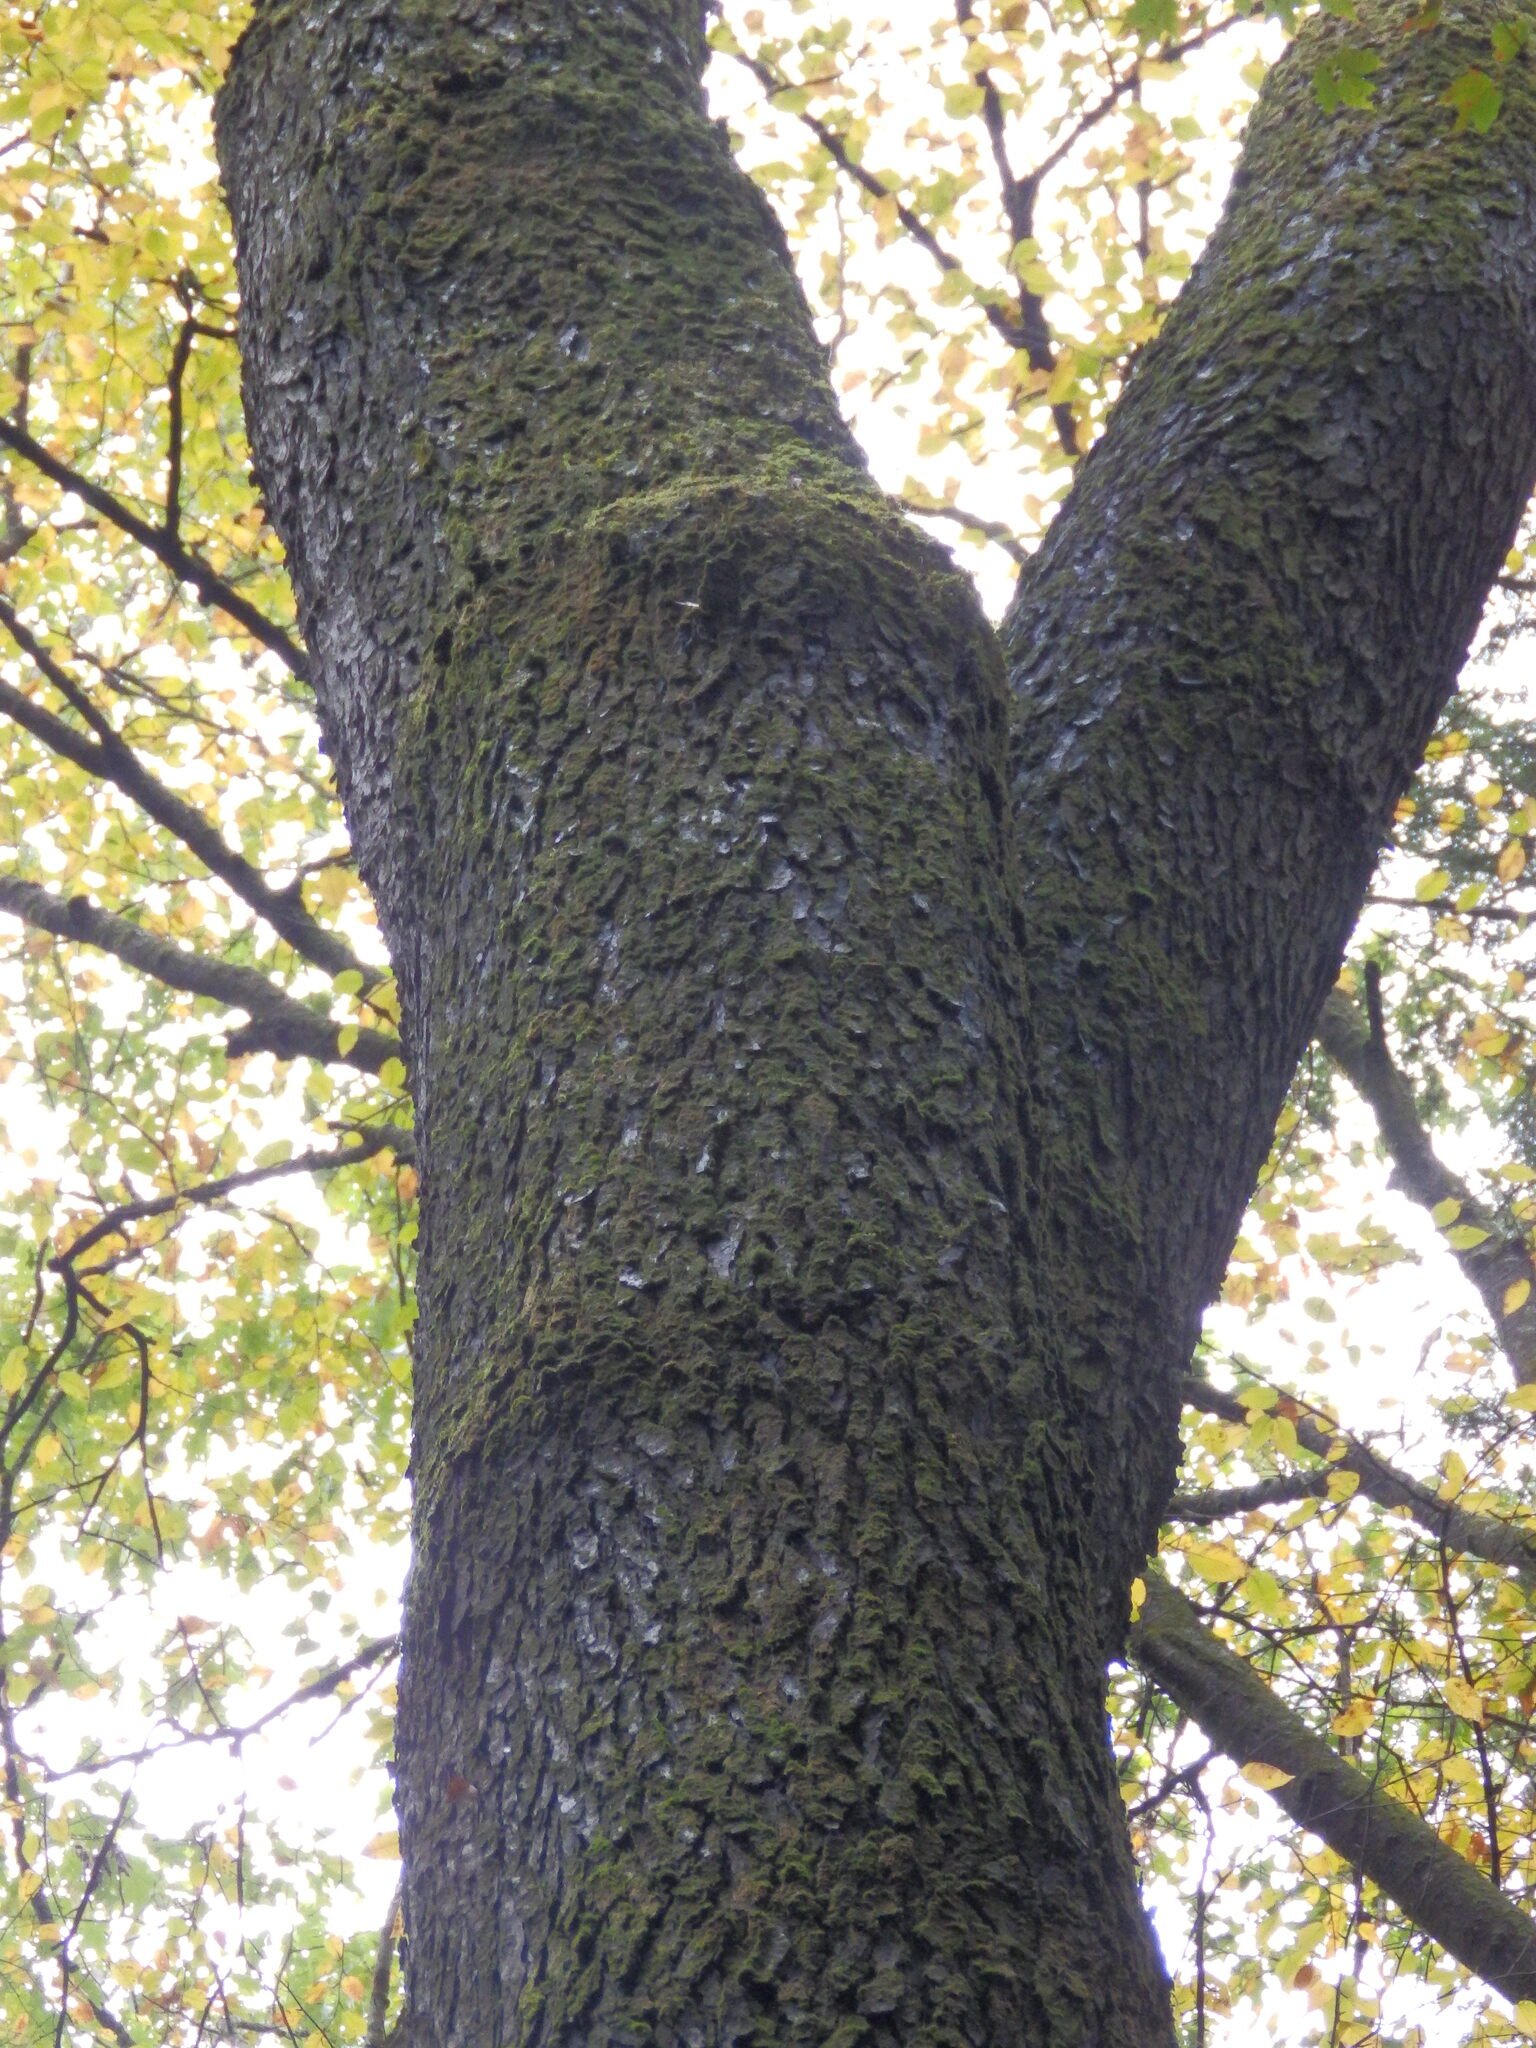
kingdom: Plantae
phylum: Tracheophyta
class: Magnoliopsida
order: Rosales
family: Rosaceae
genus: Prunus
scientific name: Prunus serotina
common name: Black cherry
